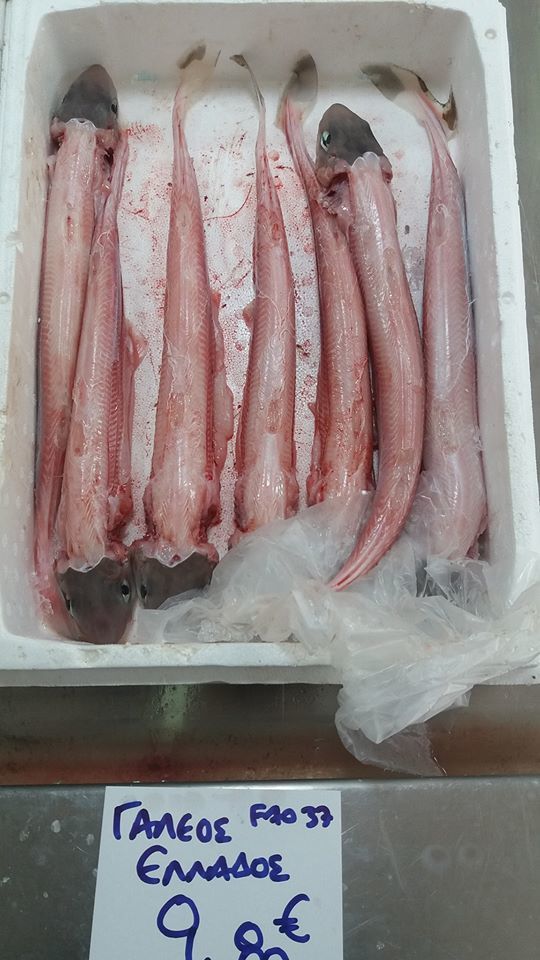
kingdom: Animalia
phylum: Chordata
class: Elasmobranchii
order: Squaliformes
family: Squalidae
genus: Squalus
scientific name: Squalus blainville
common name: Longnose spurdog
